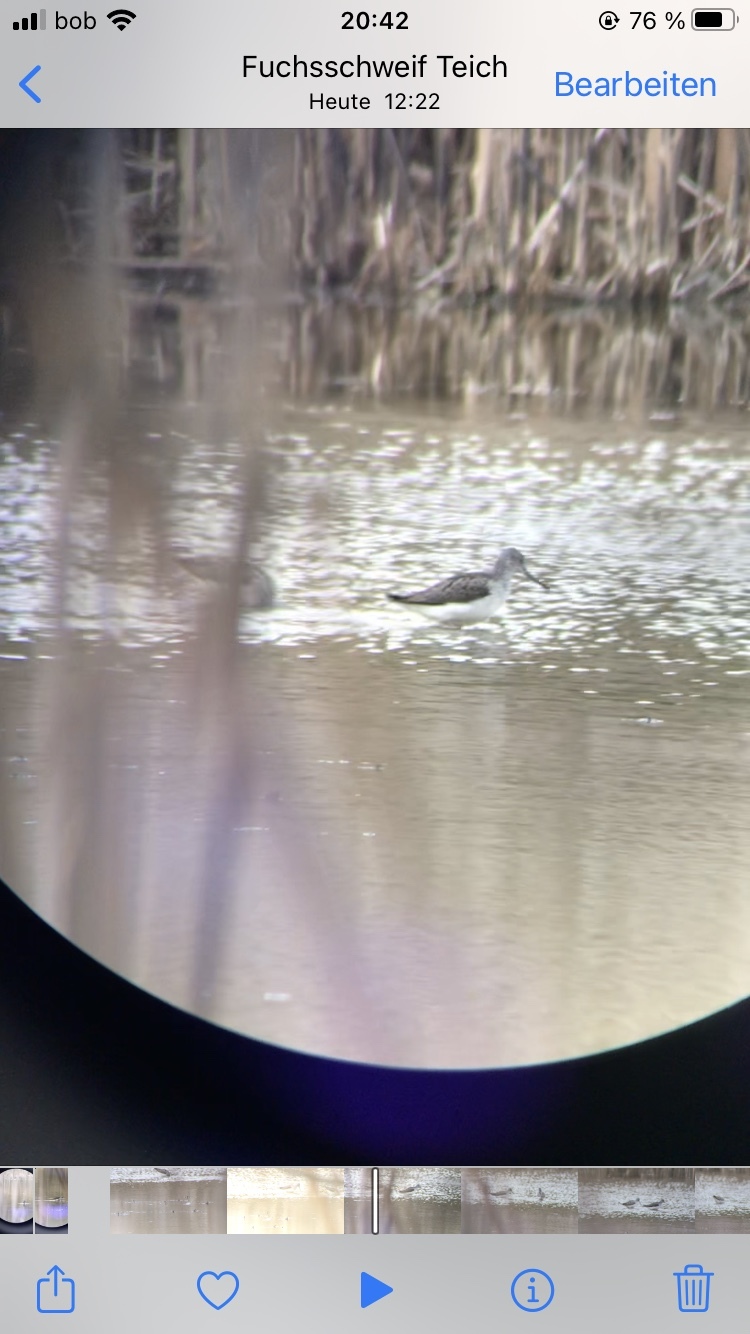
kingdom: Animalia
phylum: Chordata
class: Aves
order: Charadriiformes
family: Scolopacidae
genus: Tringa
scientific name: Tringa nebularia
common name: Common greenshank
